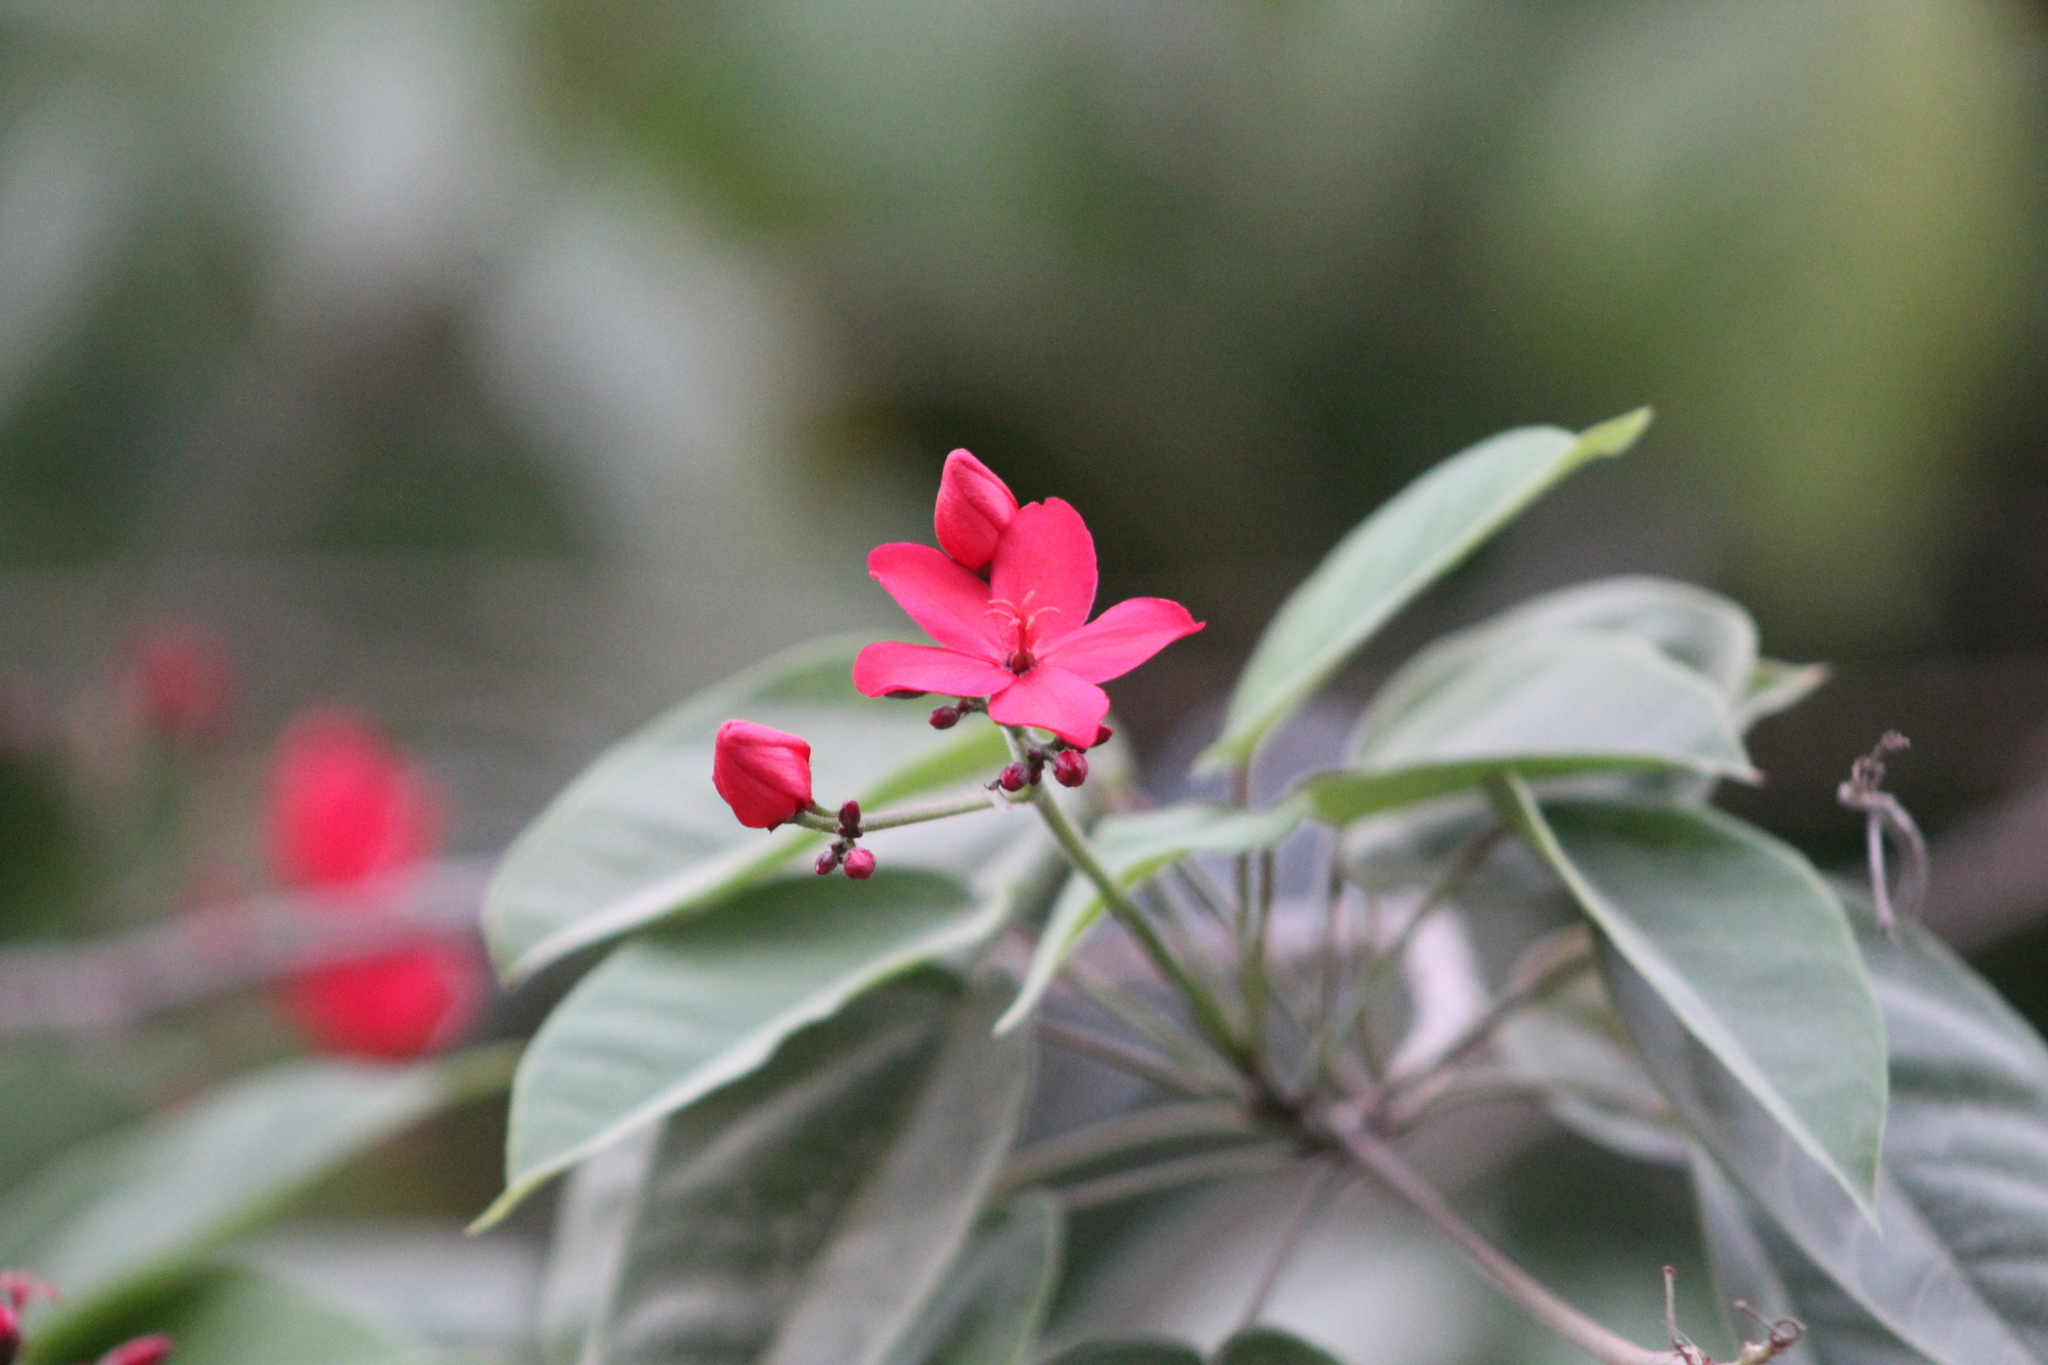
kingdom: Plantae
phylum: Tracheophyta
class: Magnoliopsida
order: Malpighiales
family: Euphorbiaceae
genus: Jatropha
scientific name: Jatropha integerrima
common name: Peregrina
